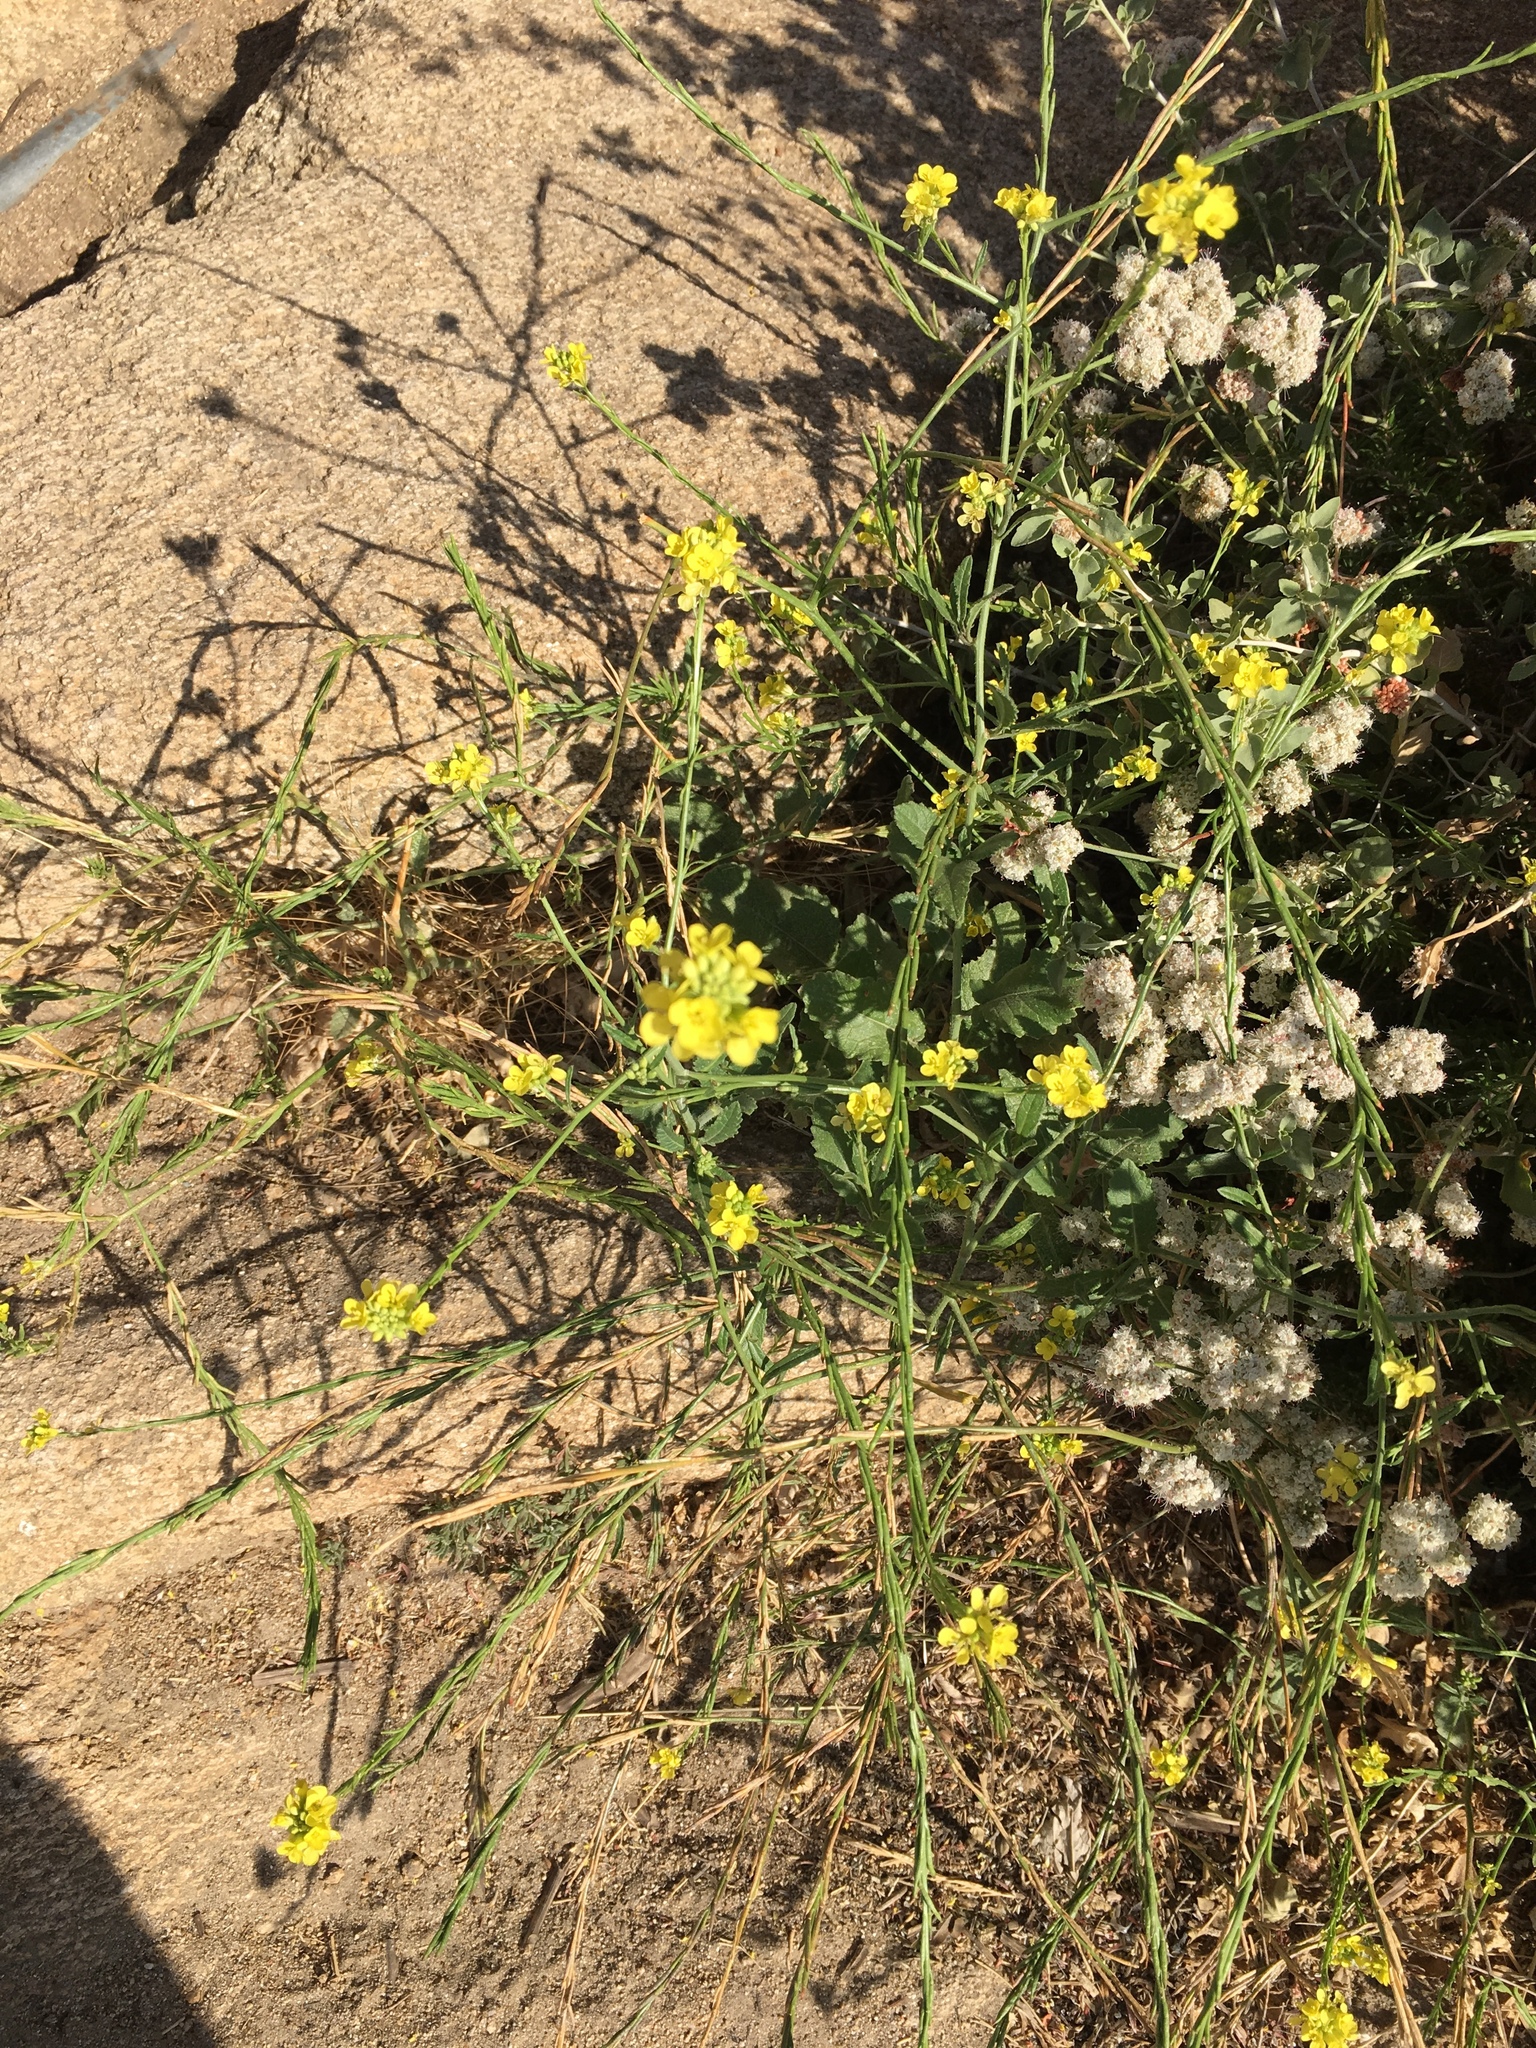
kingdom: Plantae
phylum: Tracheophyta
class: Magnoliopsida
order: Brassicales
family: Brassicaceae
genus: Hirschfeldia
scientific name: Hirschfeldia incana
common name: Hoary mustard
